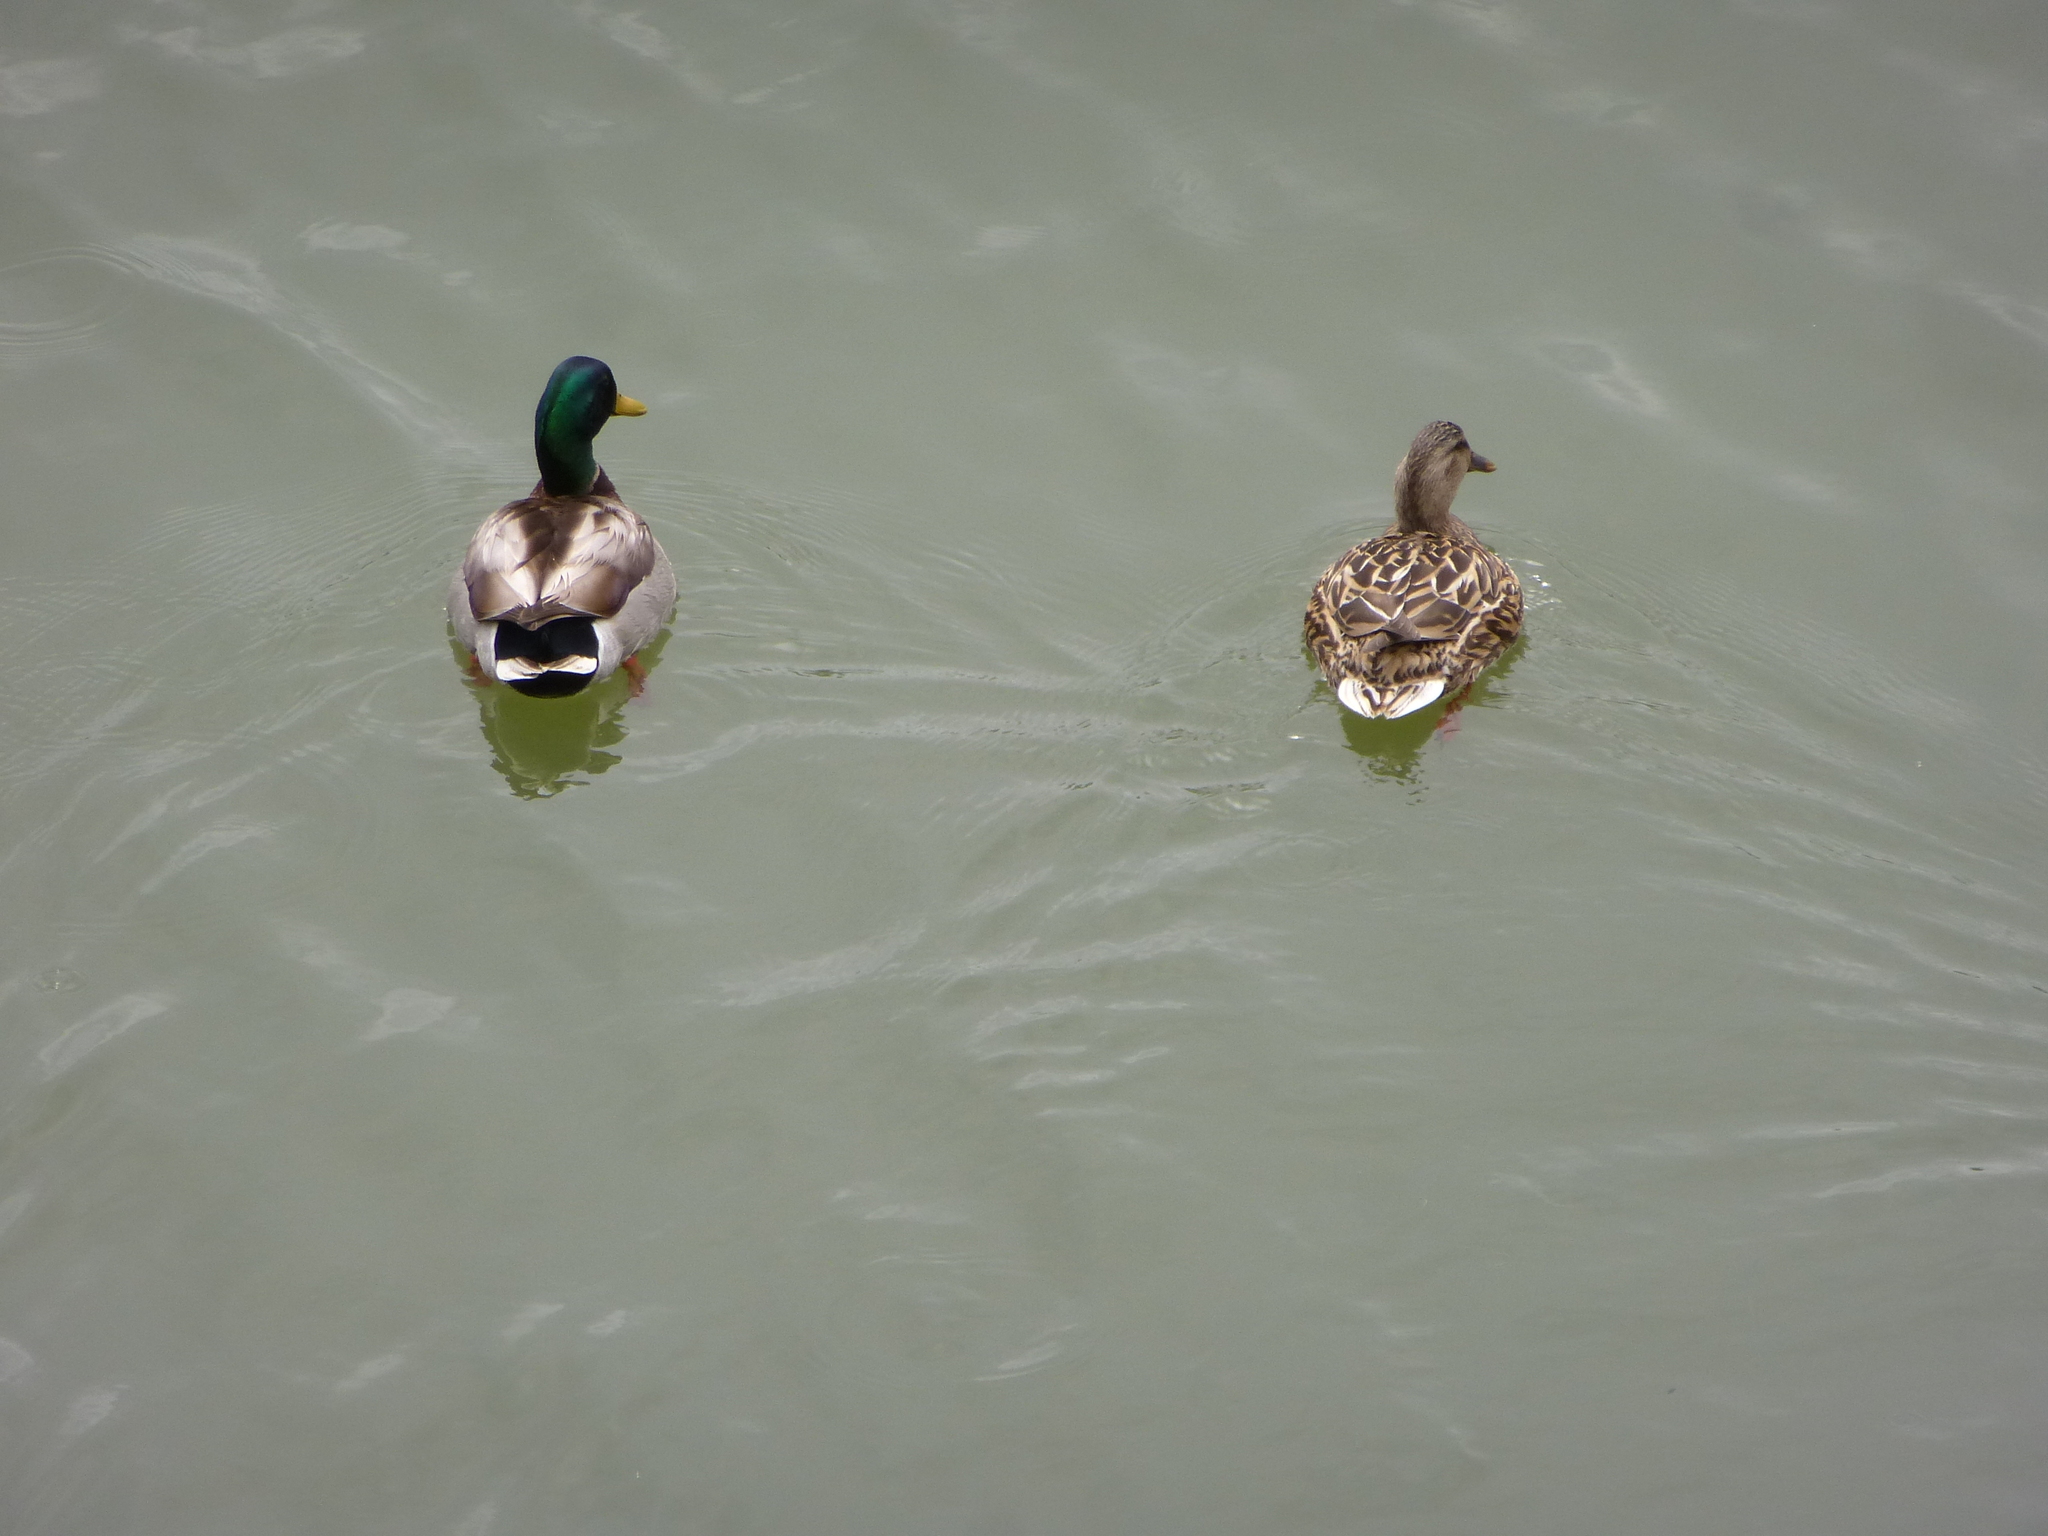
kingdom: Animalia
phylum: Chordata
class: Aves
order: Anseriformes
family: Anatidae
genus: Anas
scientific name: Anas platyrhynchos
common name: Mallard
